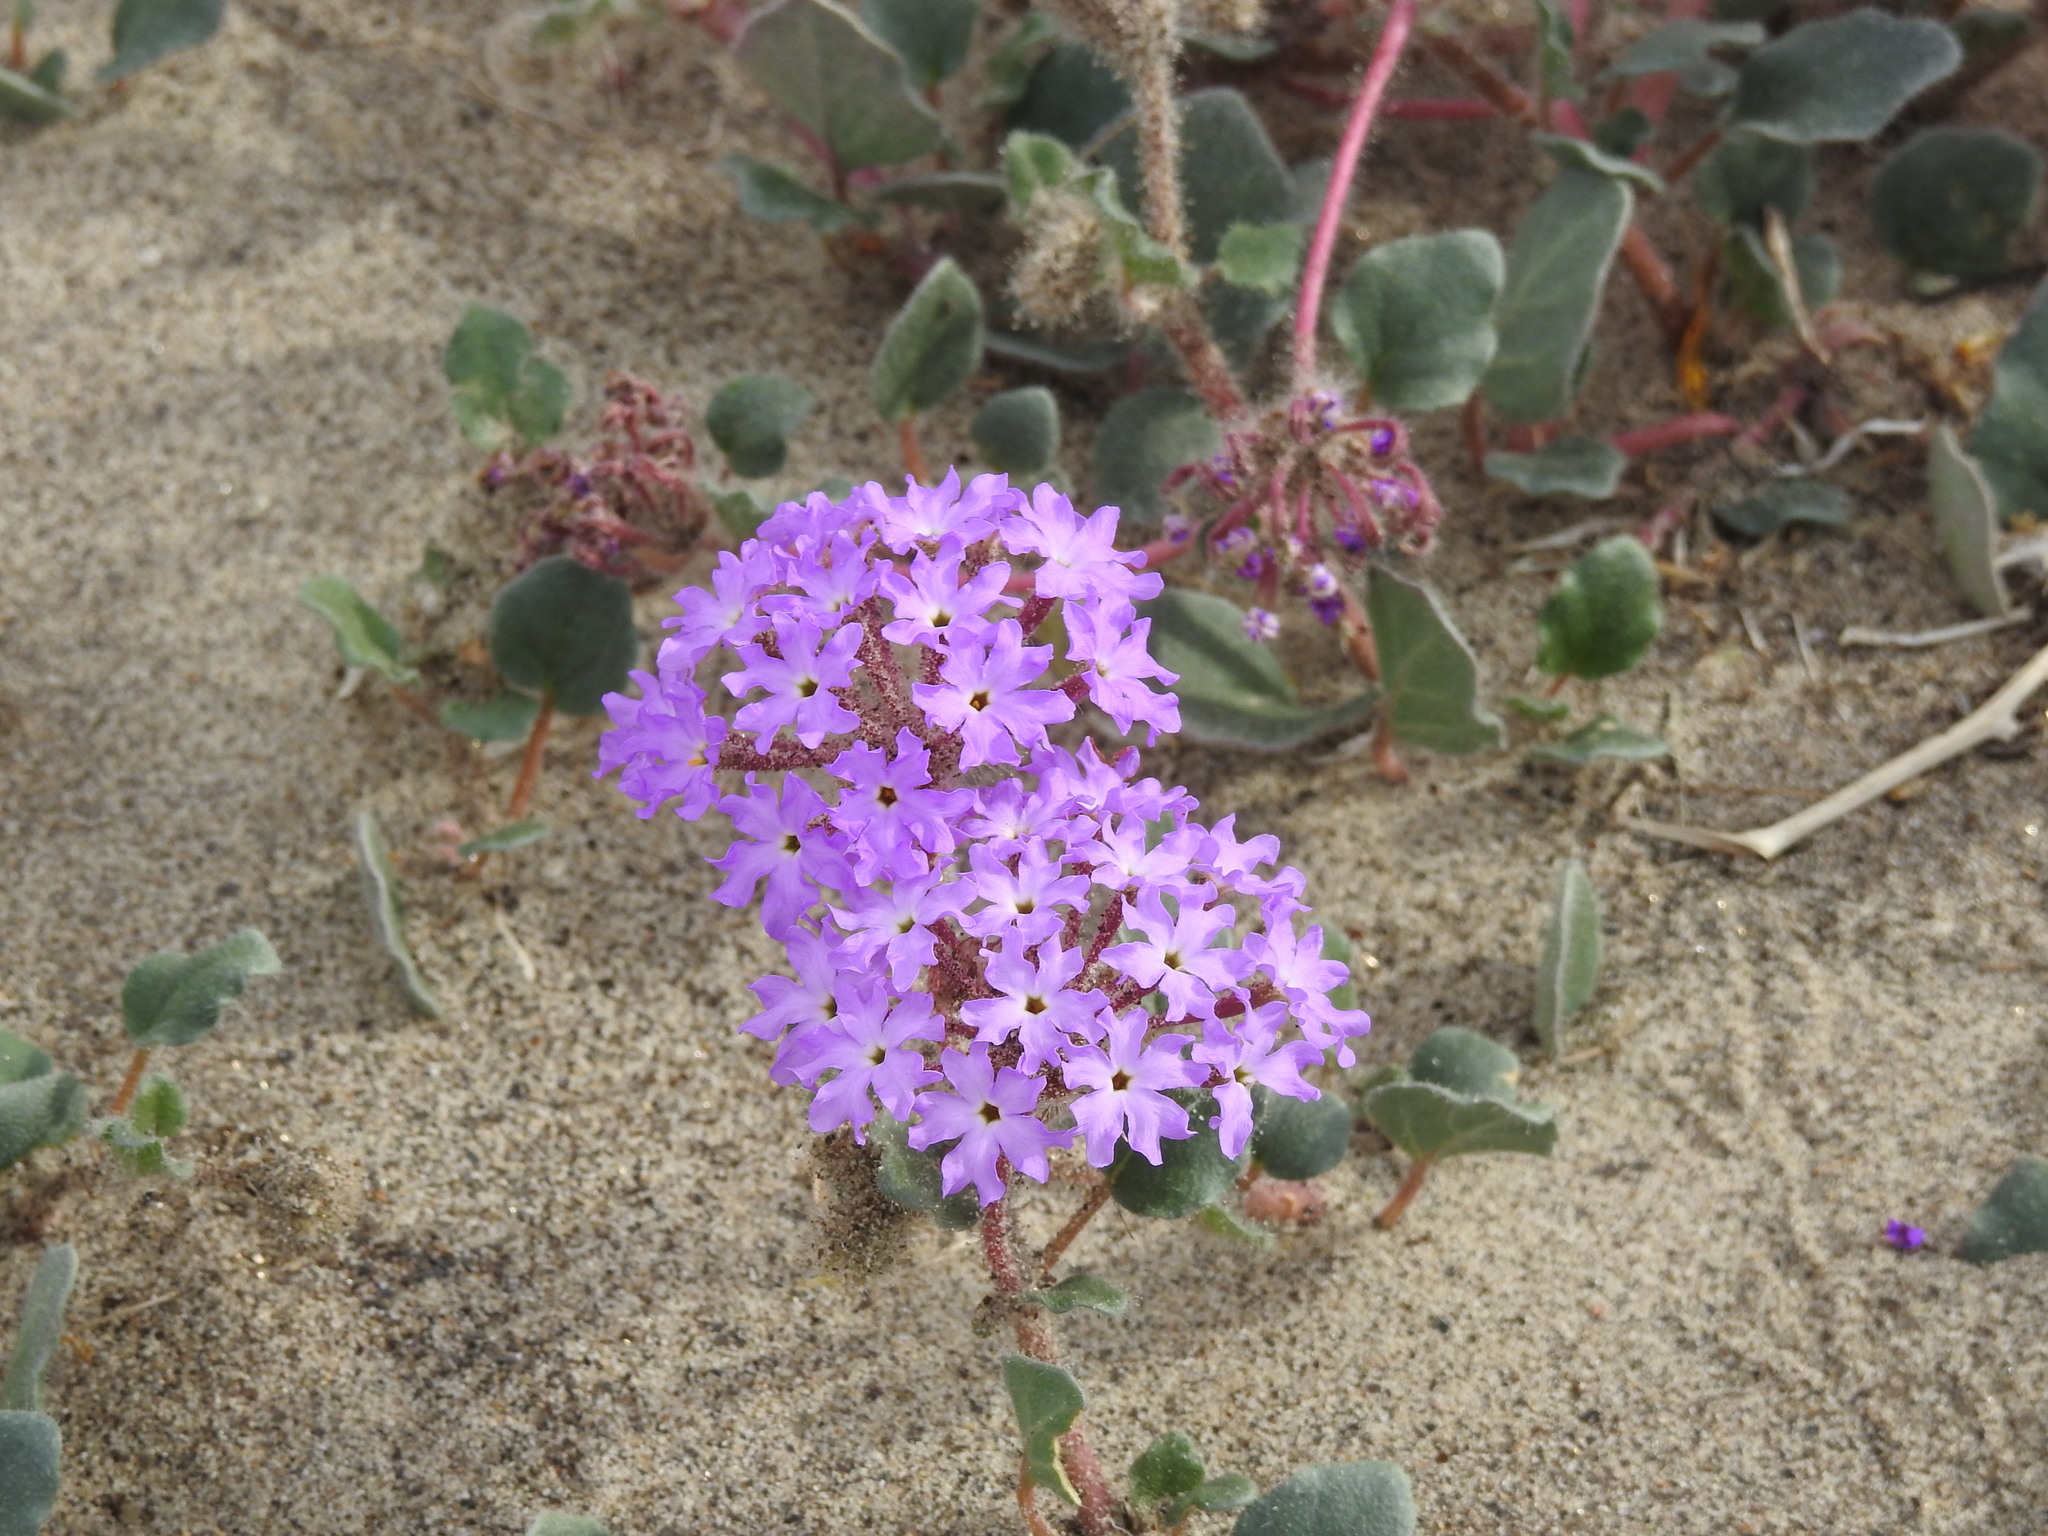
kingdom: Plantae
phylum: Tracheophyta
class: Magnoliopsida
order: Caryophyllales
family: Nyctaginaceae
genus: Abronia
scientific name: Abronia villosa
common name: Desert sand-verbena
